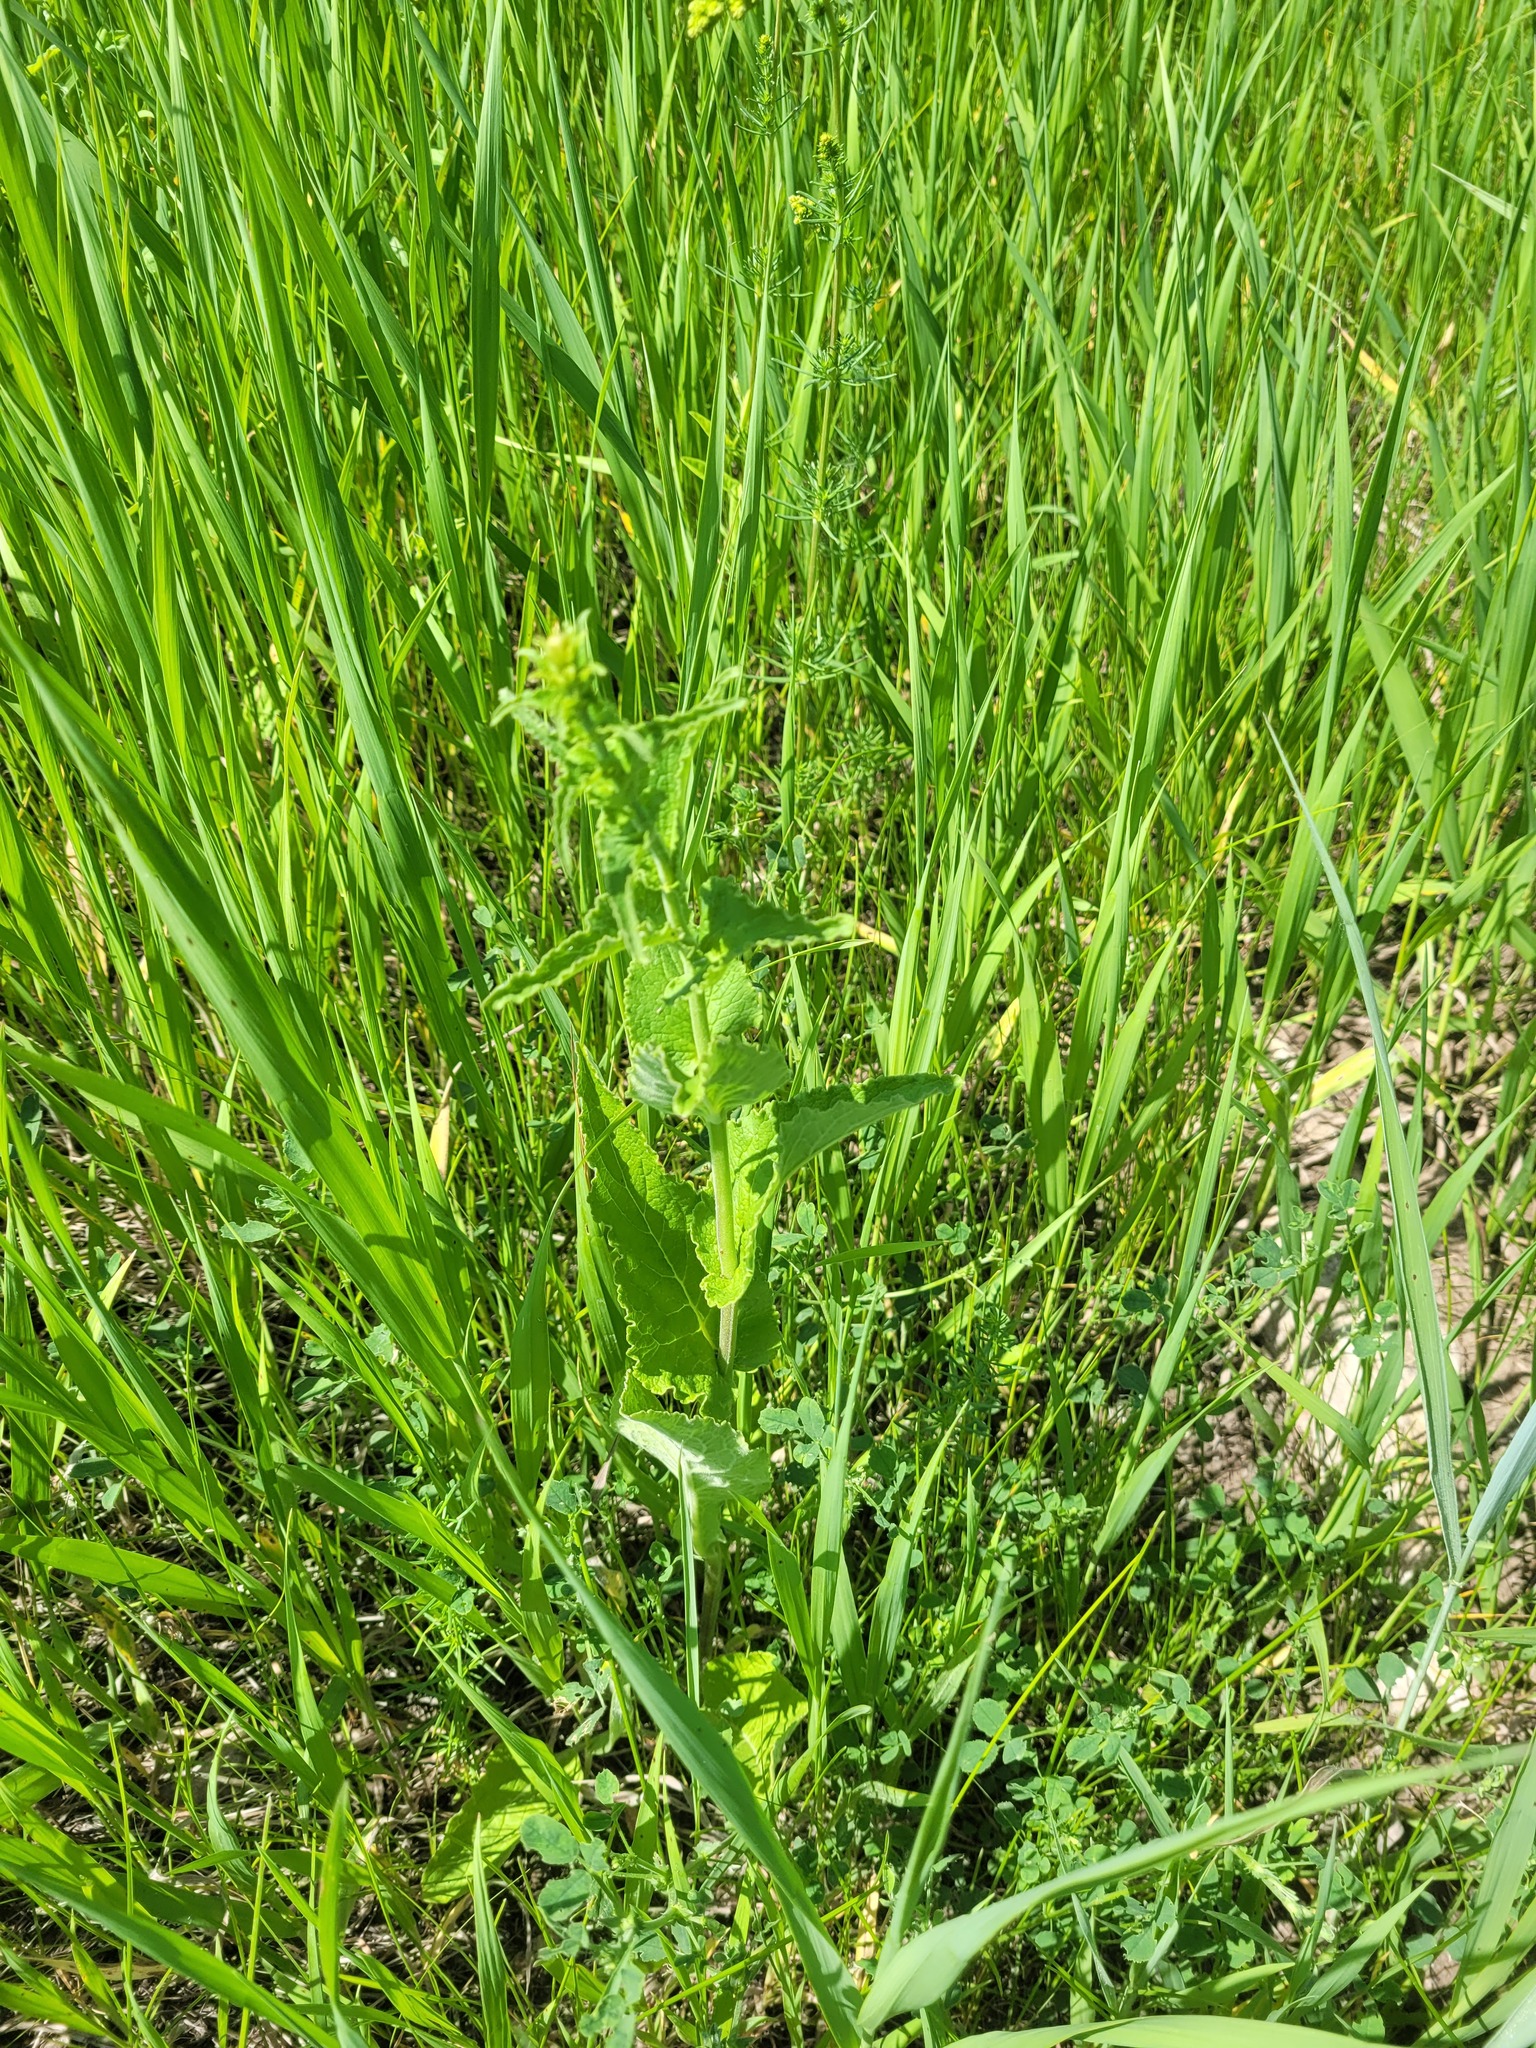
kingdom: Plantae
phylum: Tracheophyta
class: Magnoliopsida
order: Asterales
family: Campanulaceae
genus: Campanula
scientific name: Campanula bononiensis
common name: Pale bellflower
